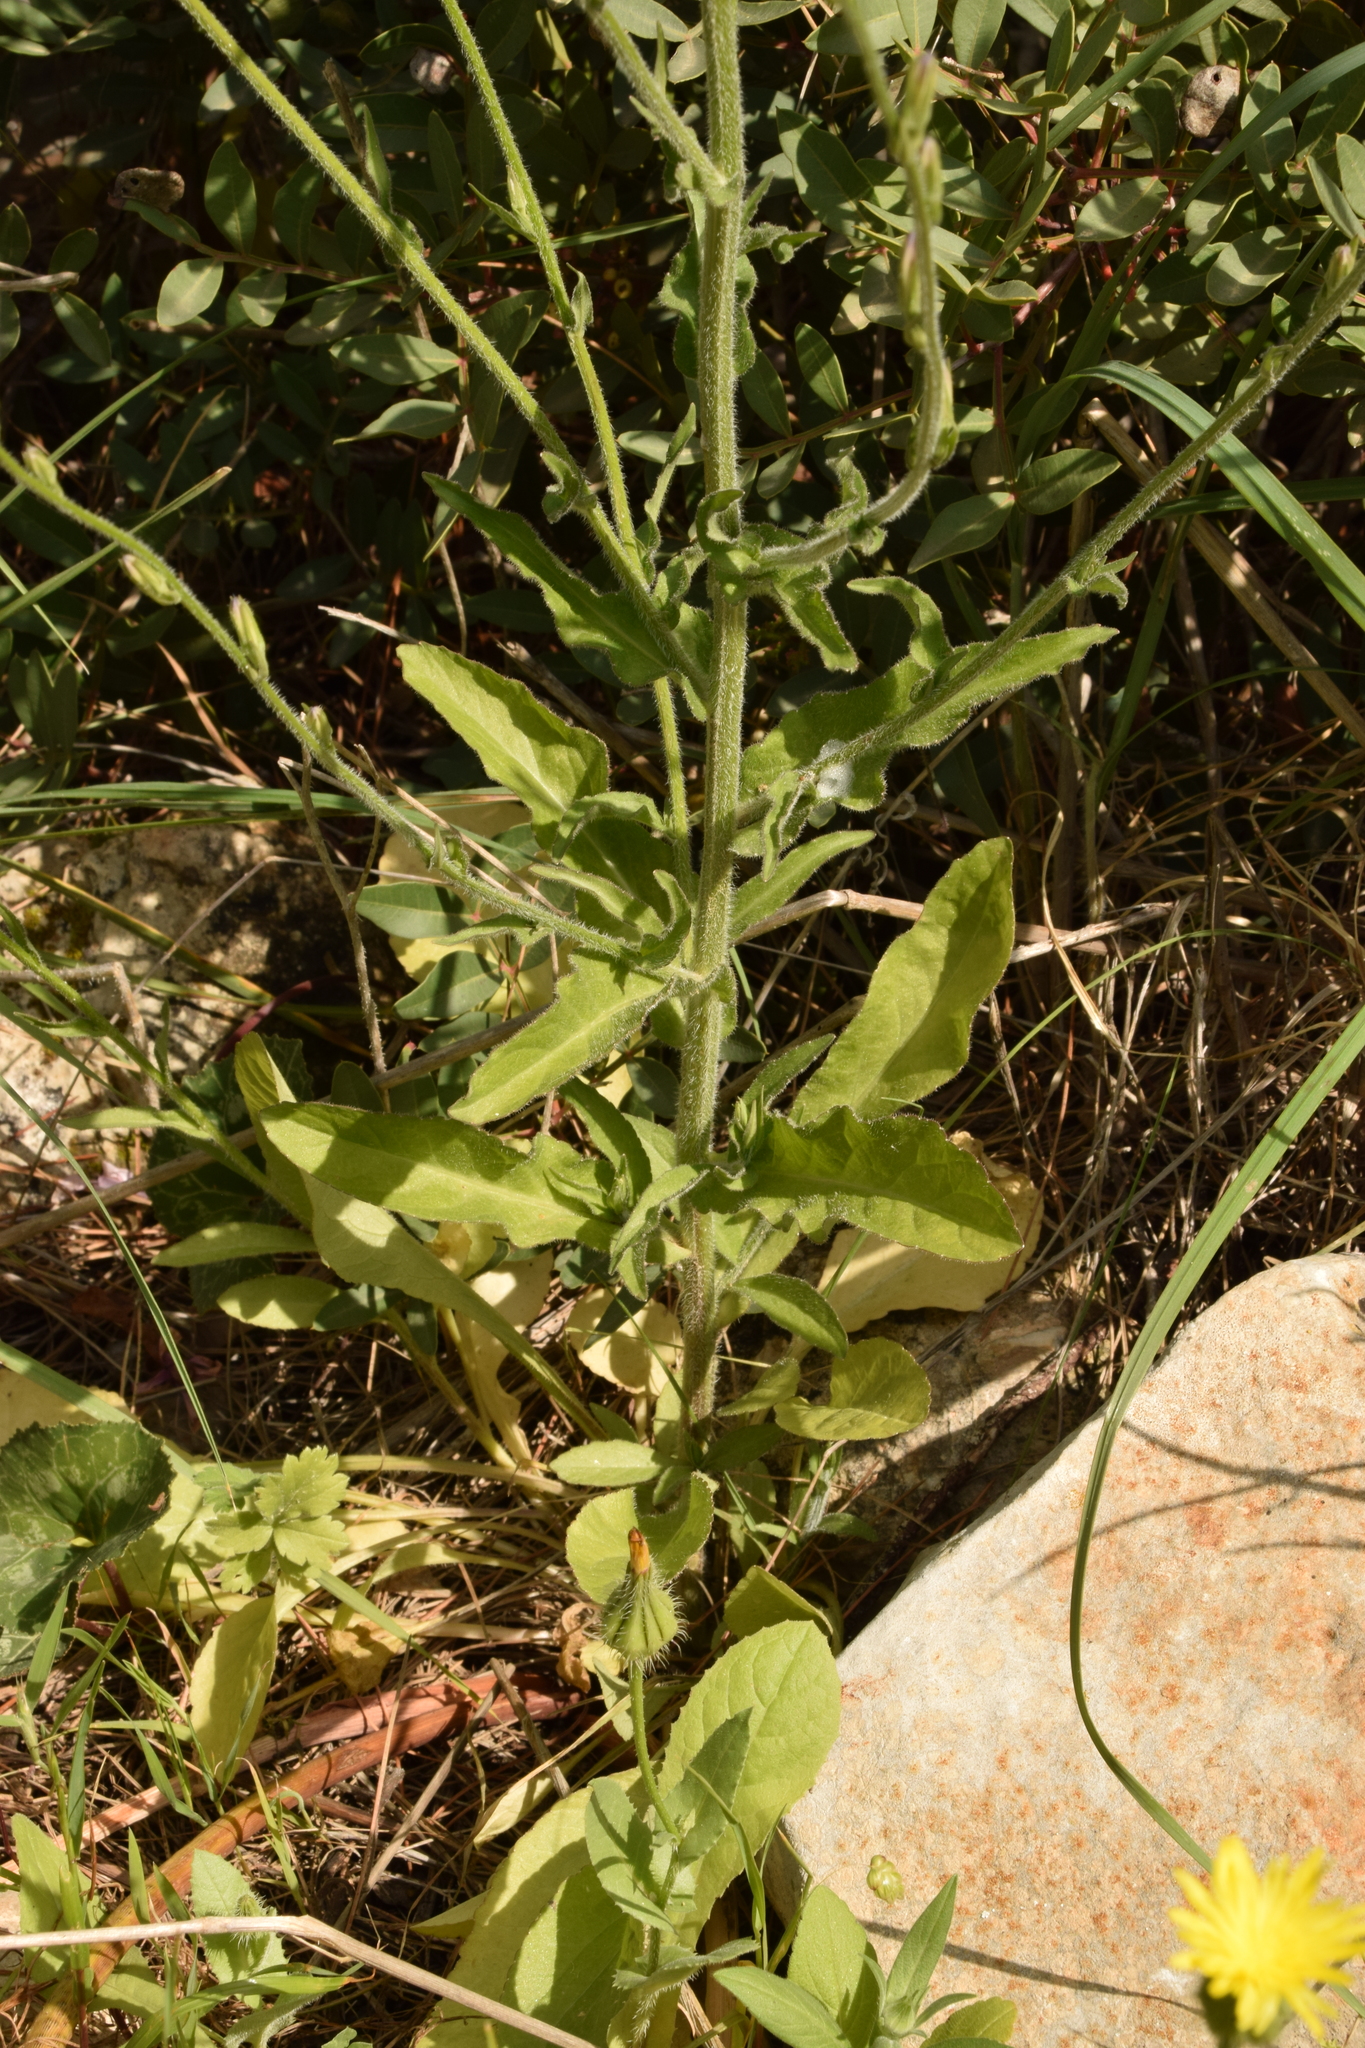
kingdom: Plantae
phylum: Tracheophyta
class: Magnoliopsida
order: Asterales
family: Campanulaceae
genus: Campanula
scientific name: Campanula rapunculus
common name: Rampion bellflower
